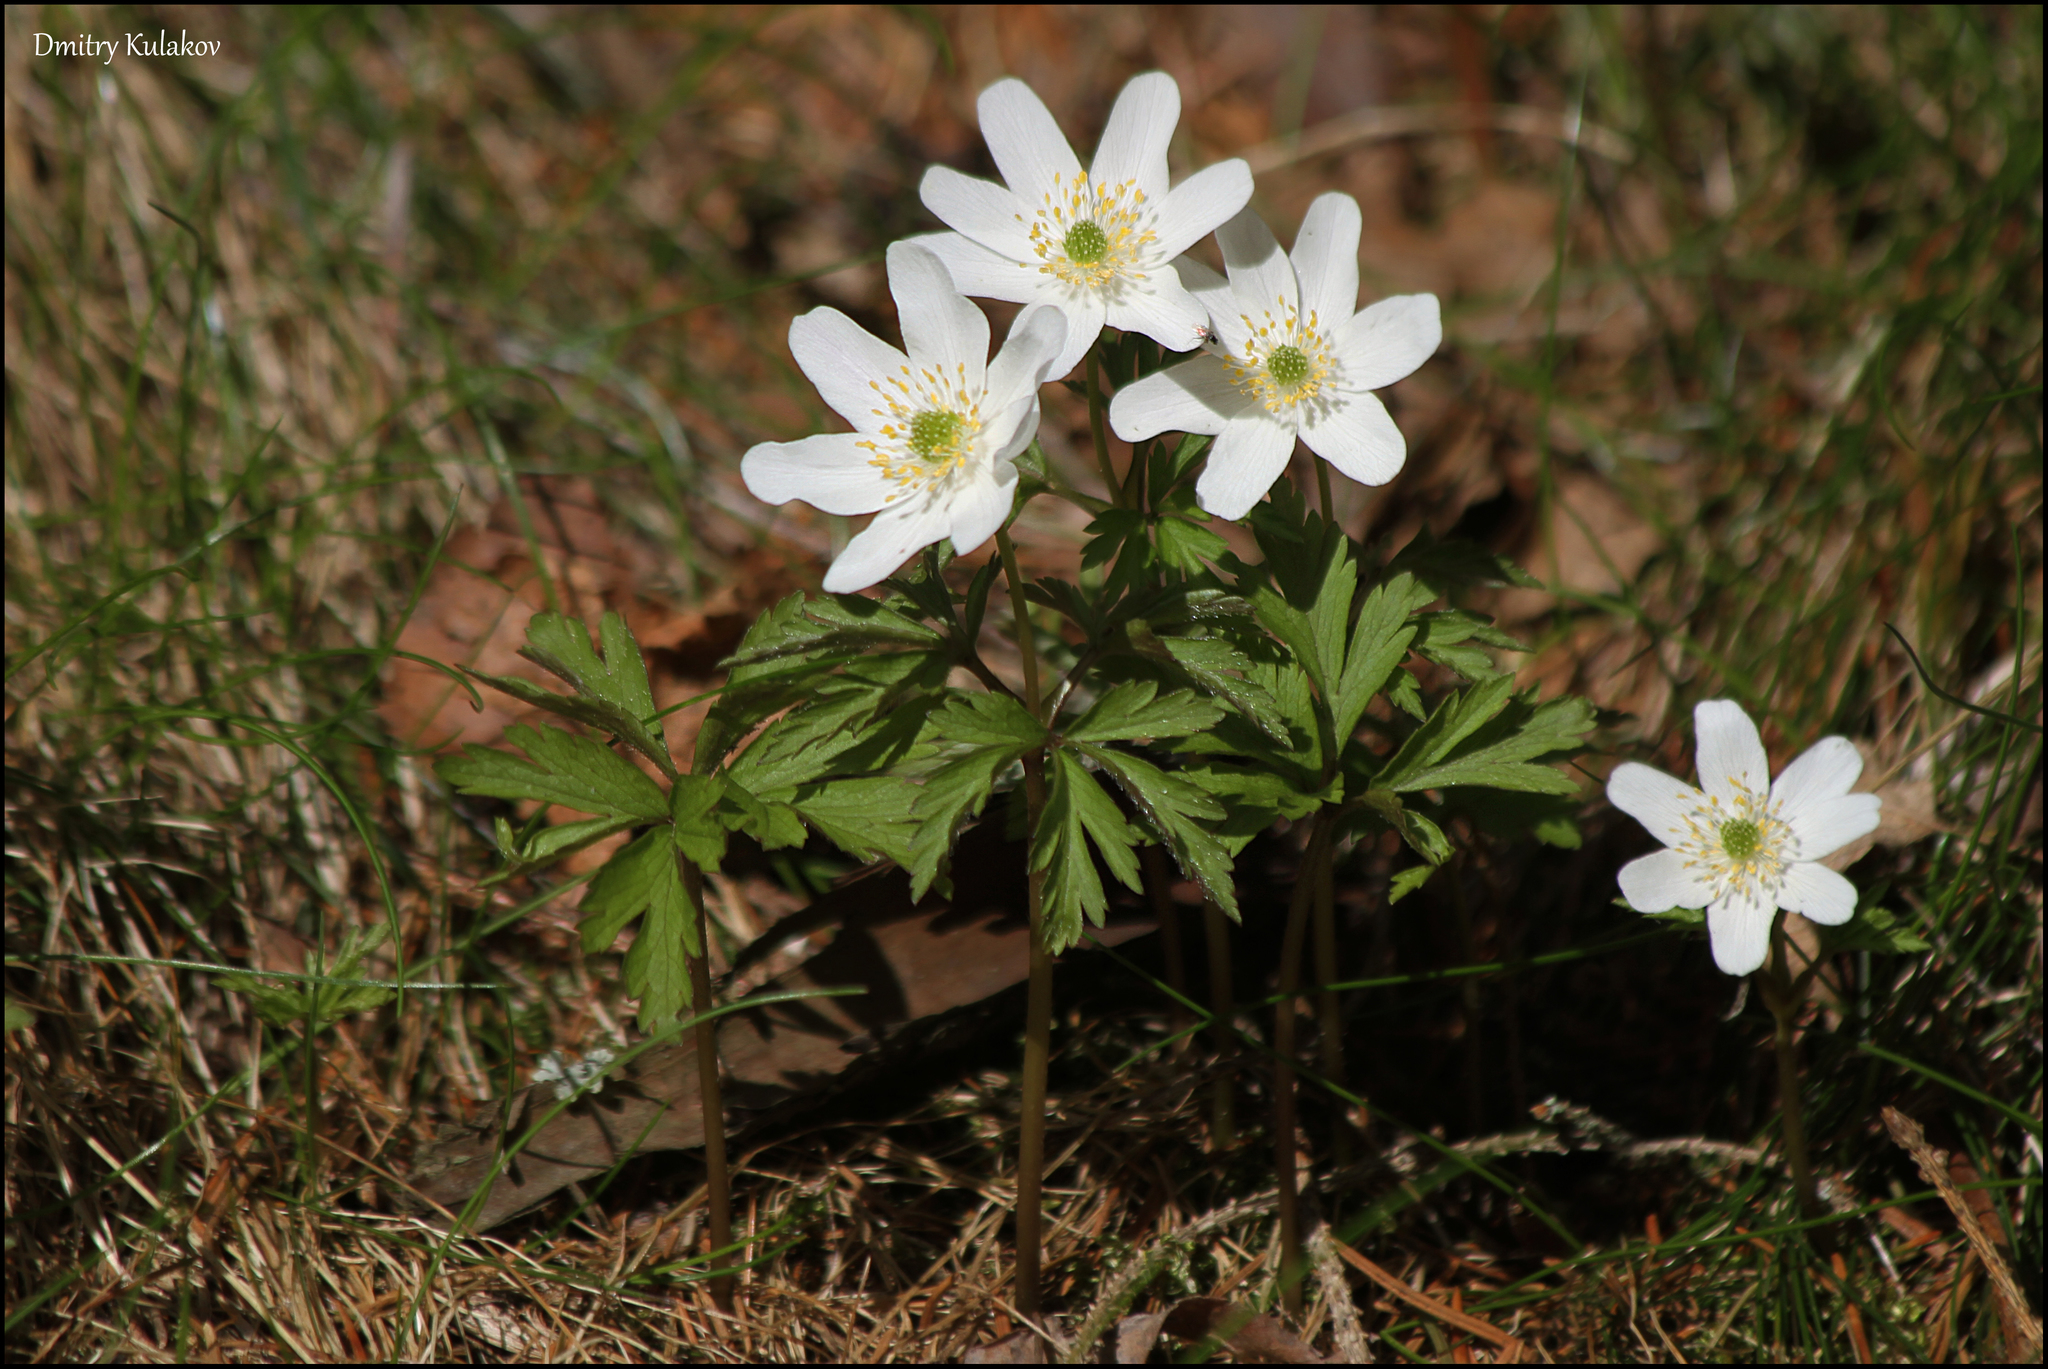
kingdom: Plantae
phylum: Tracheophyta
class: Magnoliopsida
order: Ranunculales
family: Ranunculaceae
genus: Anemone
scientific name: Anemone nemorosa
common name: Wood anemone
